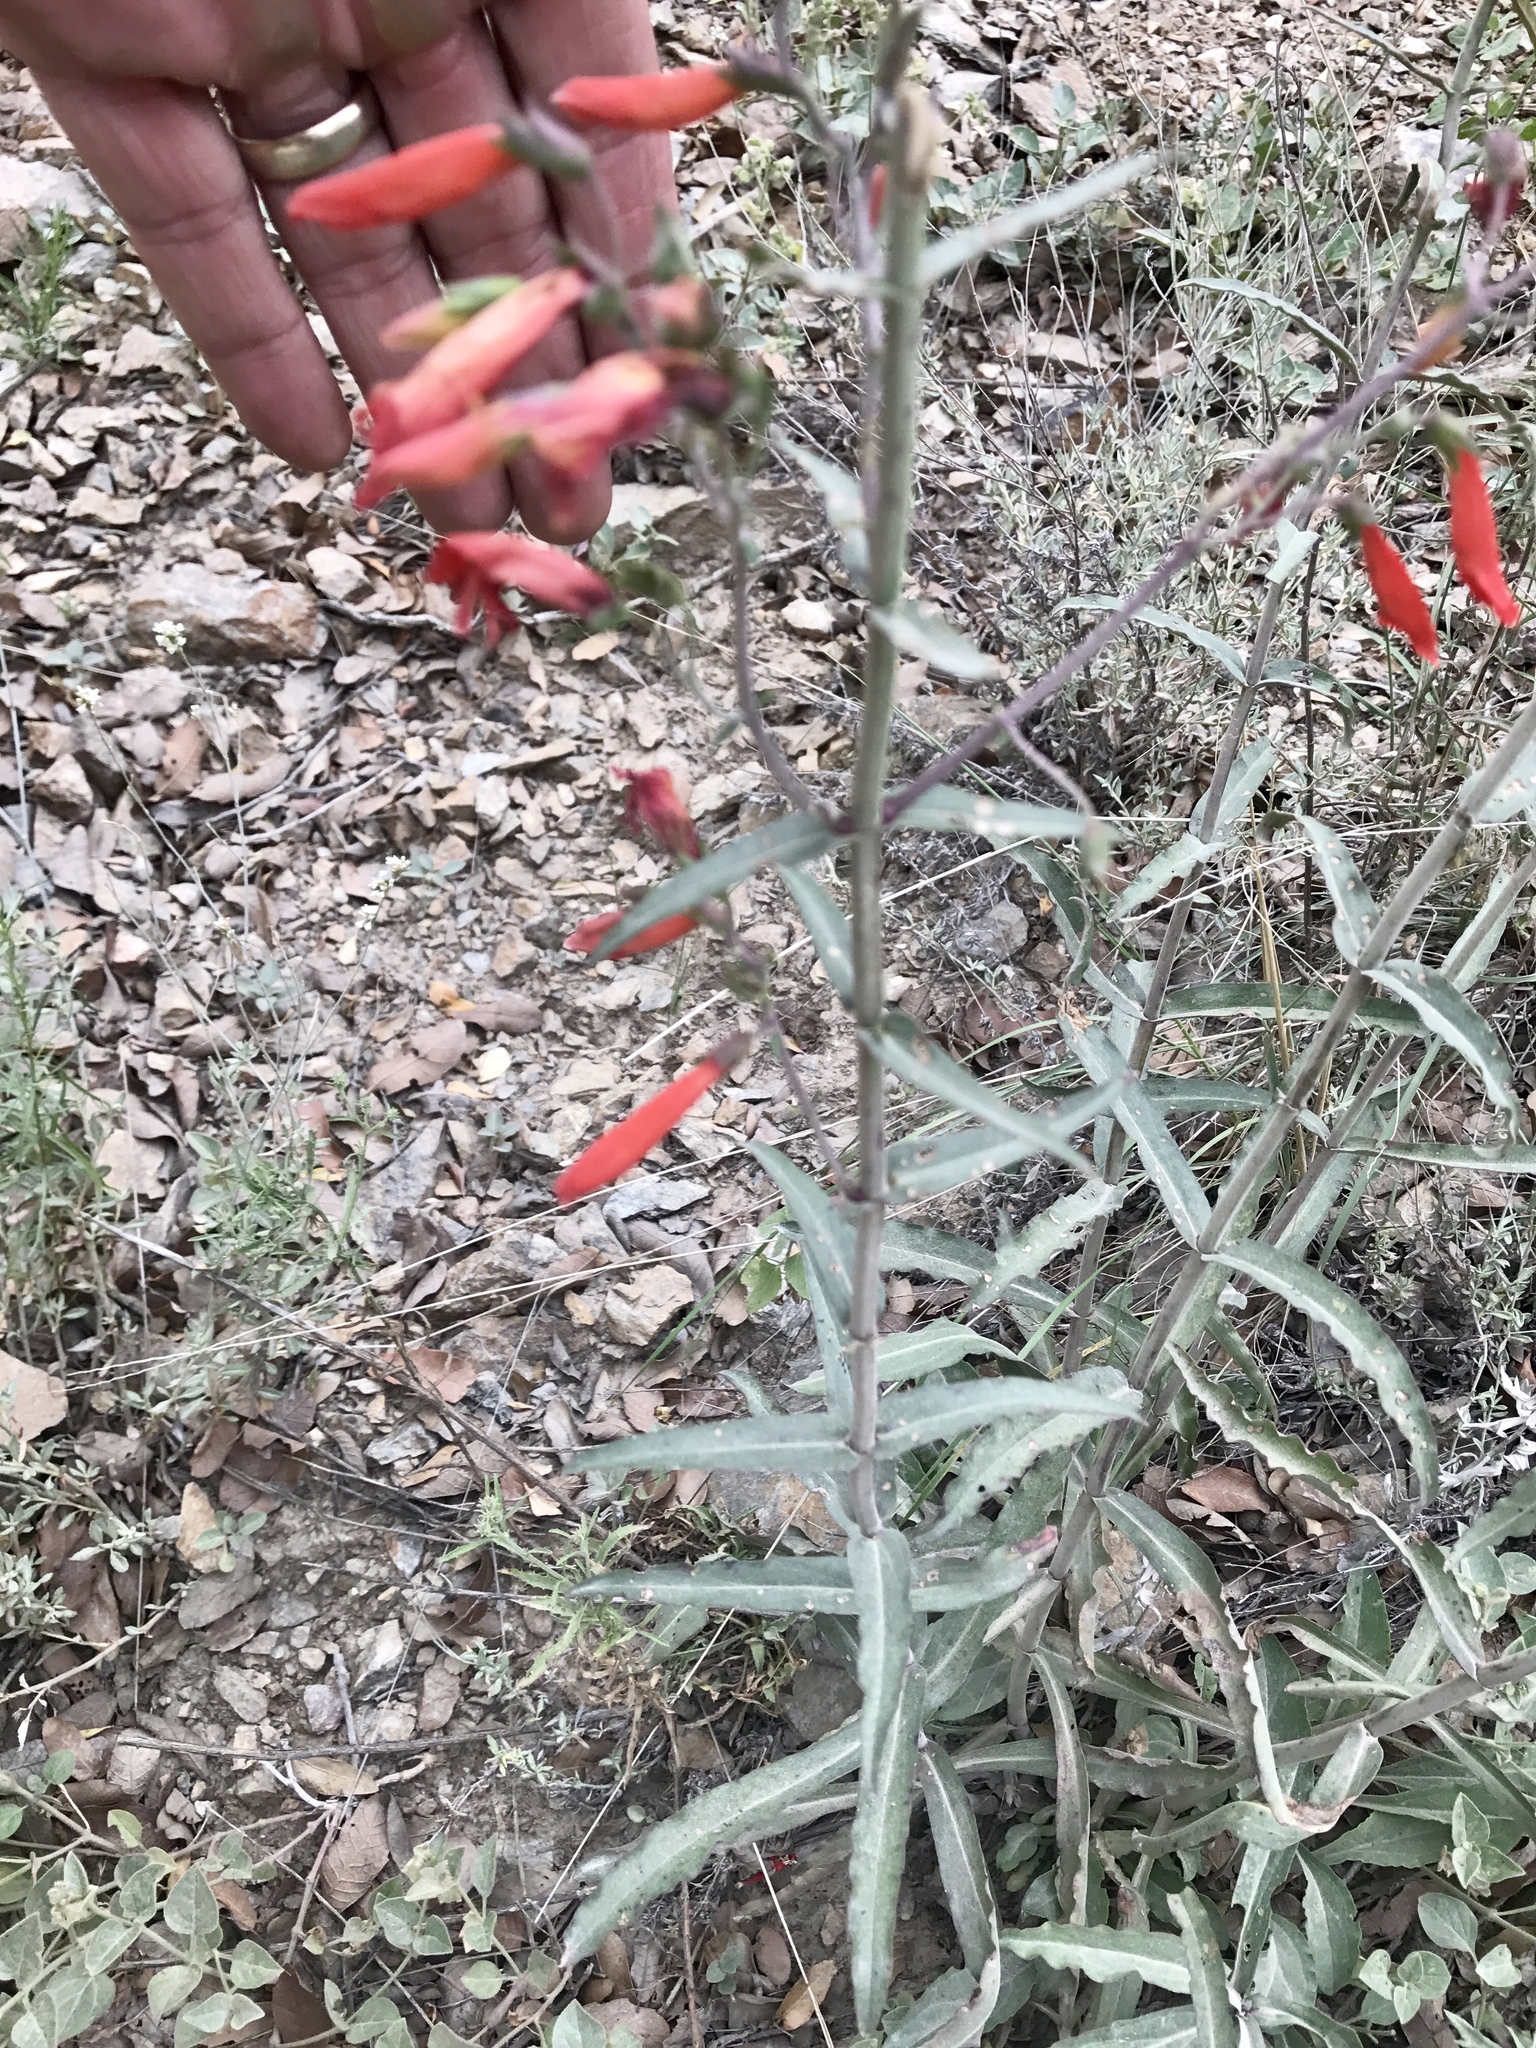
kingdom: Plantae
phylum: Tracheophyta
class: Magnoliopsida
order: Lamiales
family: Plantaginaceae
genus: Penstemon
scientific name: Penstemon barbatus
